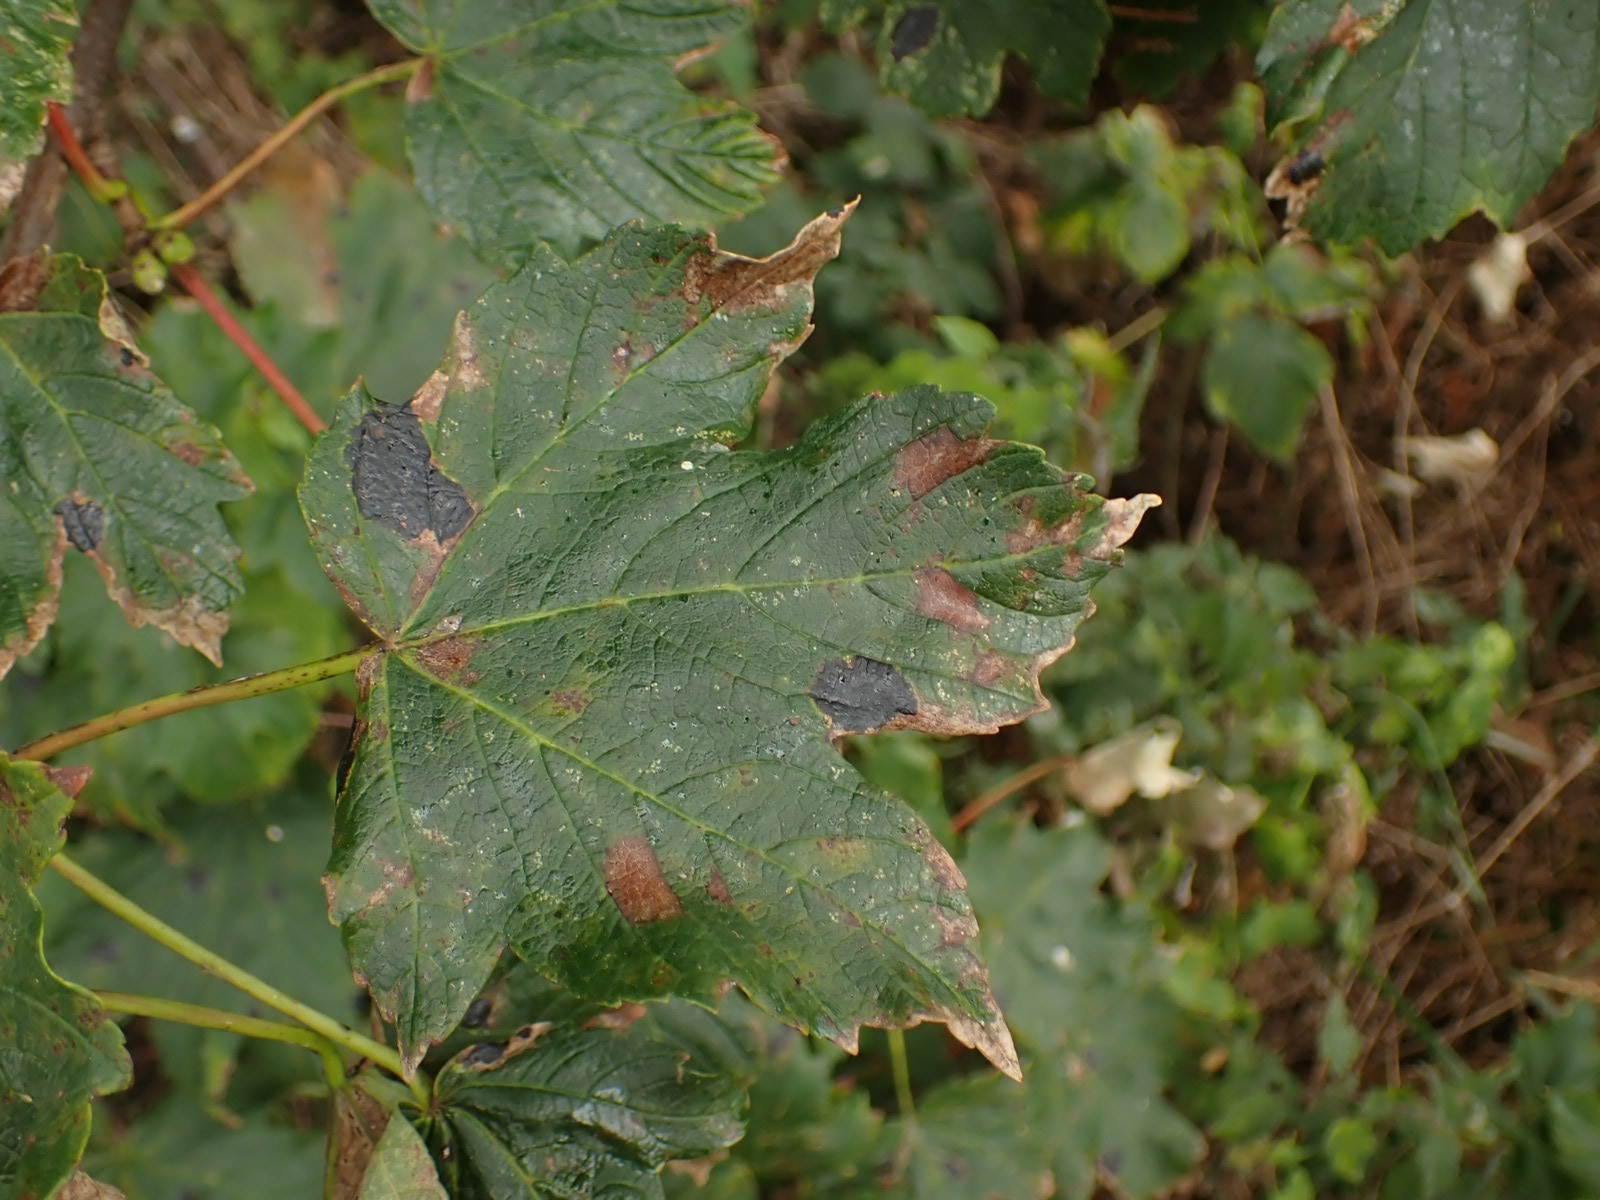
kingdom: Plantae
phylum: Tracheophyta
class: Magnoliopsida
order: Sapindales
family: Sapindaceae
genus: Acer
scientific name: Acer pseudoplatanus
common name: Sycamore
